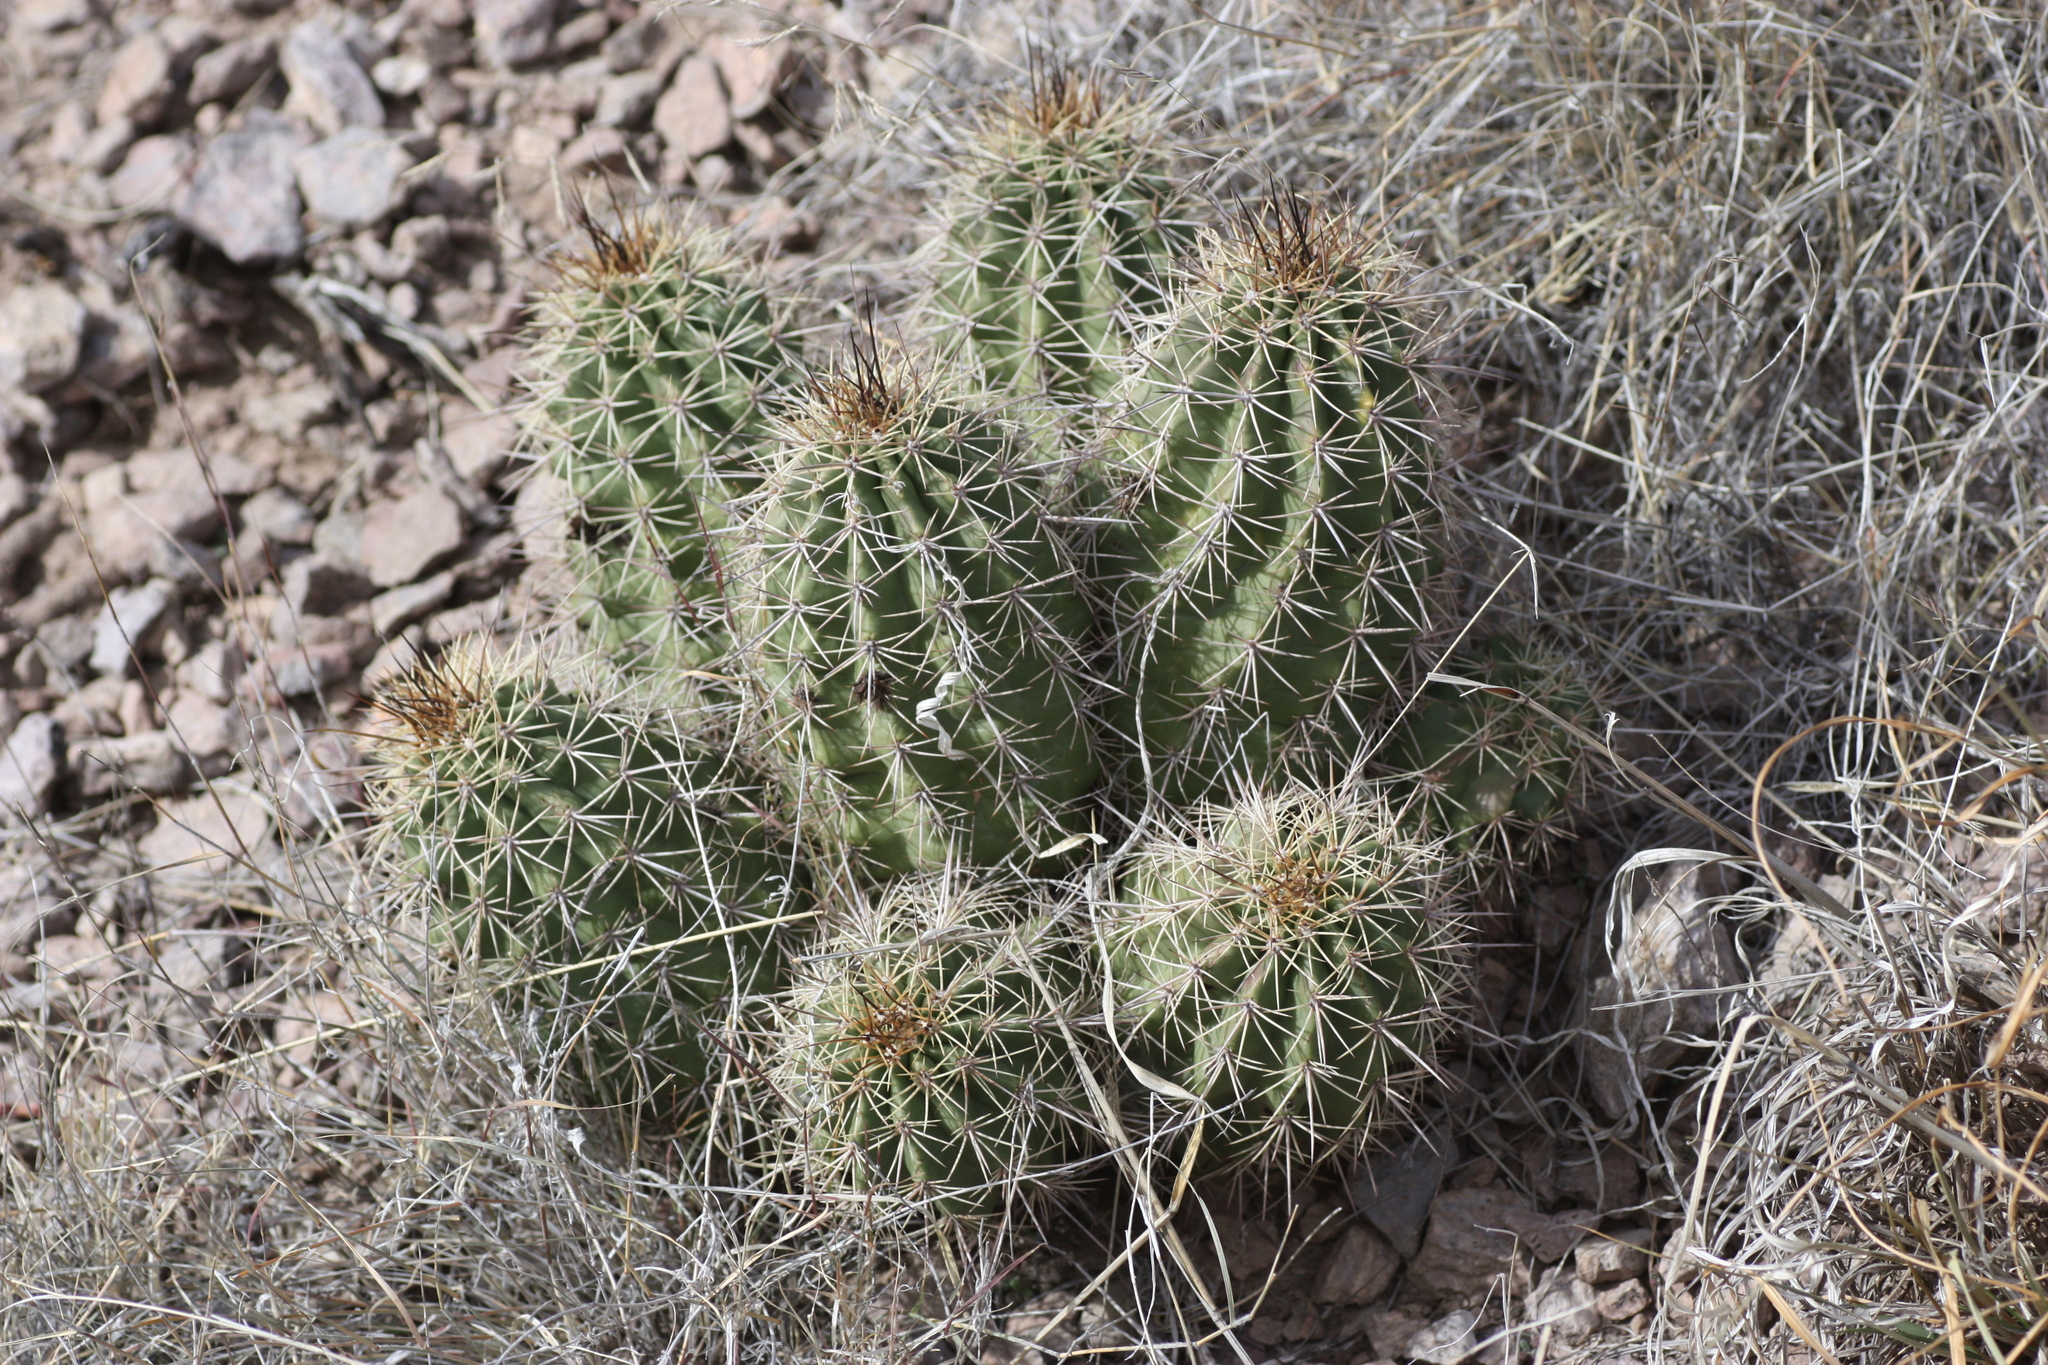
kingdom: Plantae
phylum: Tracheophyta
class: Magnoliopsida
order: Caryophyllales
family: Cactaceae
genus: Echinocereus
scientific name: Echinocereus coccineus
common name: Scarlet hedgehog cactus
